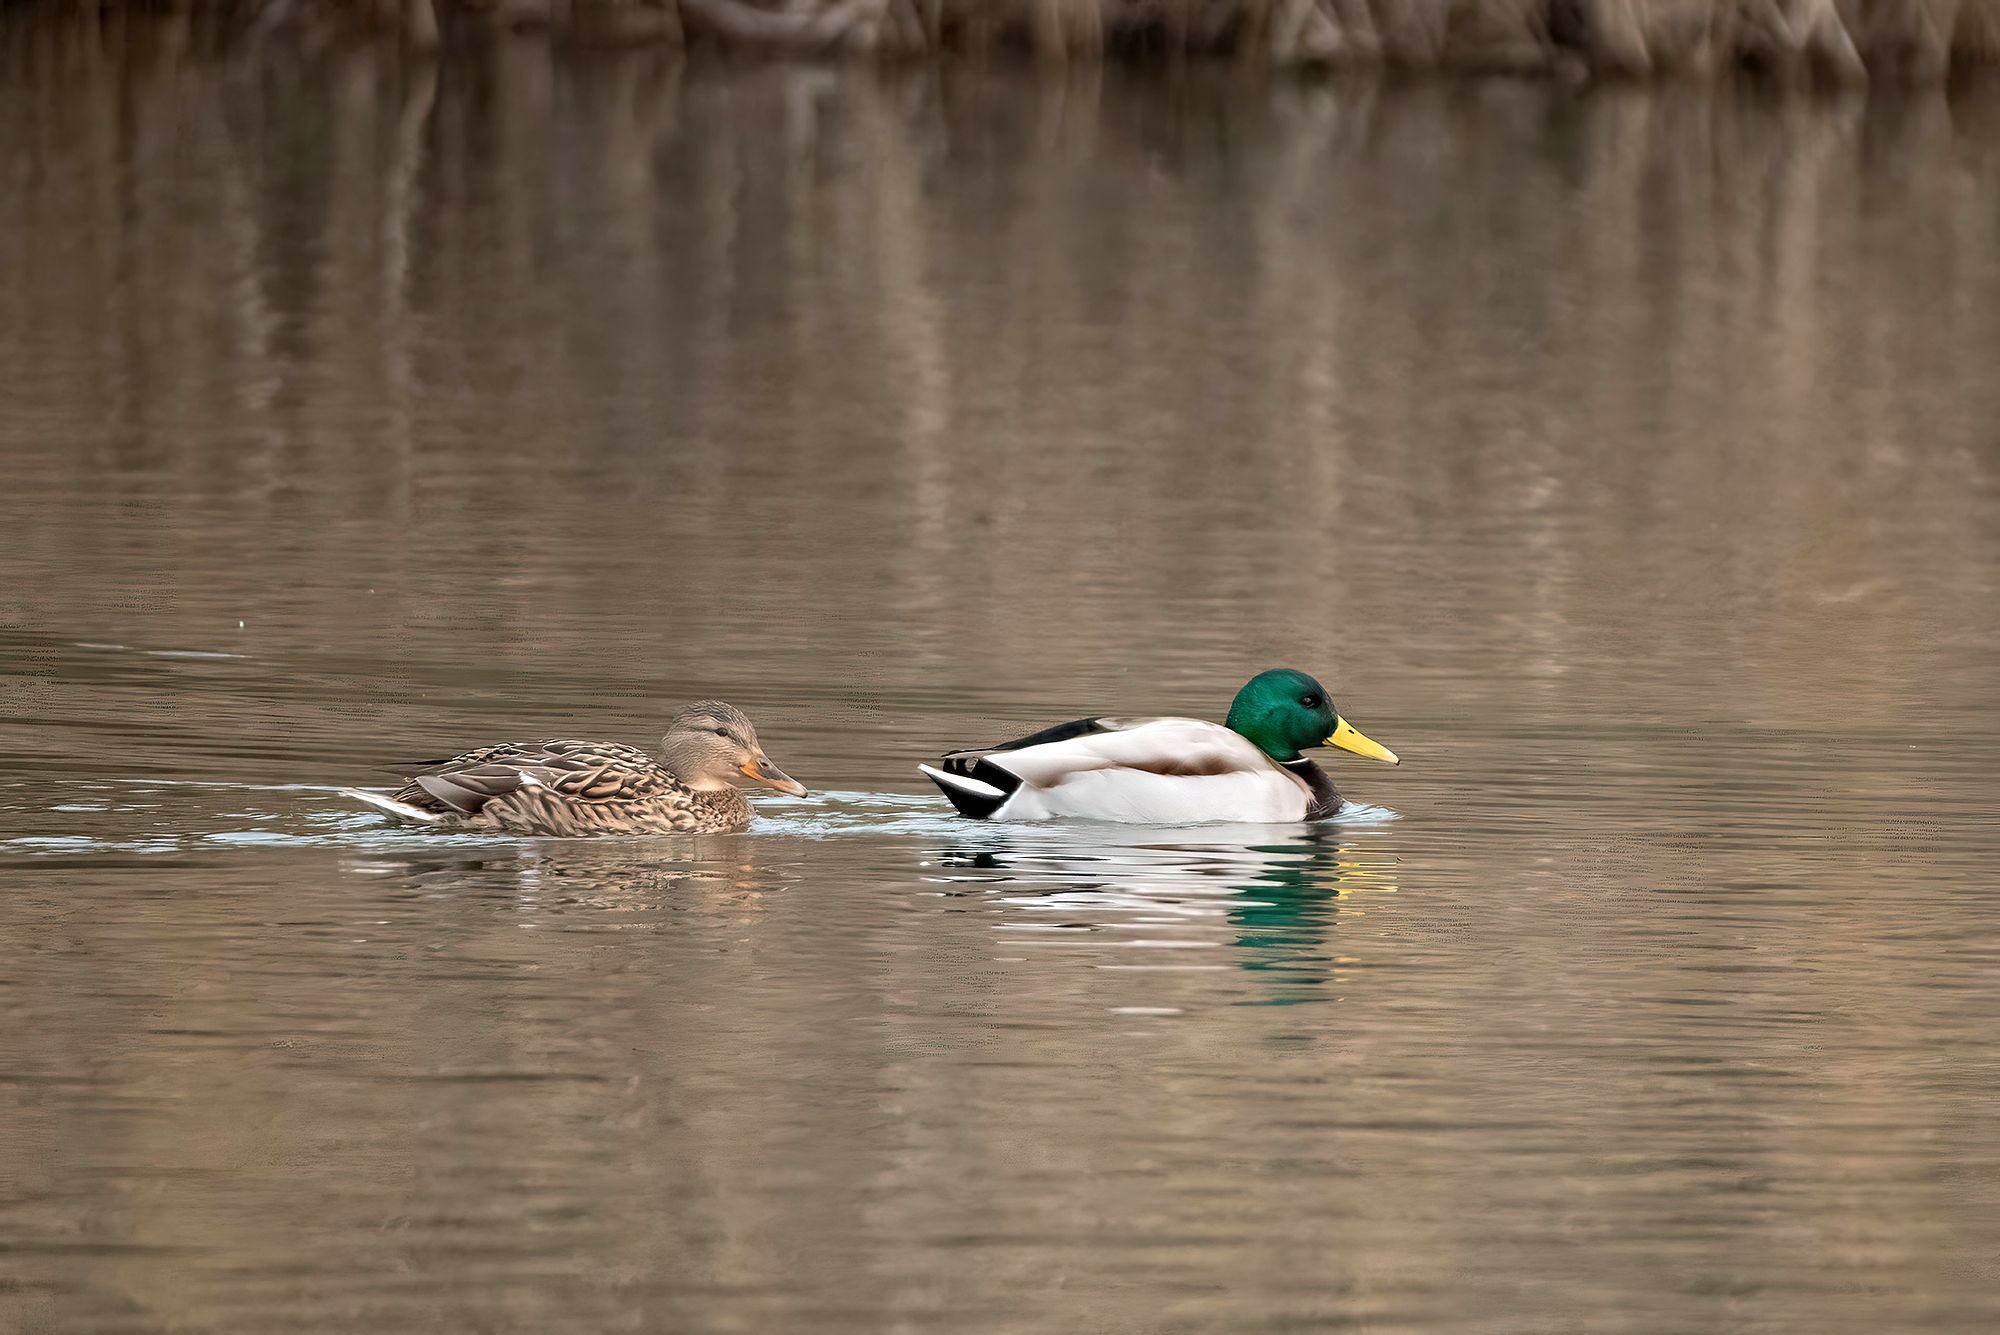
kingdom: Animalia
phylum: Chordata
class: Aves
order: Anseriformes
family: Anatidae
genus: Anas
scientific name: Anas platyrhynchos
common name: Mallard
